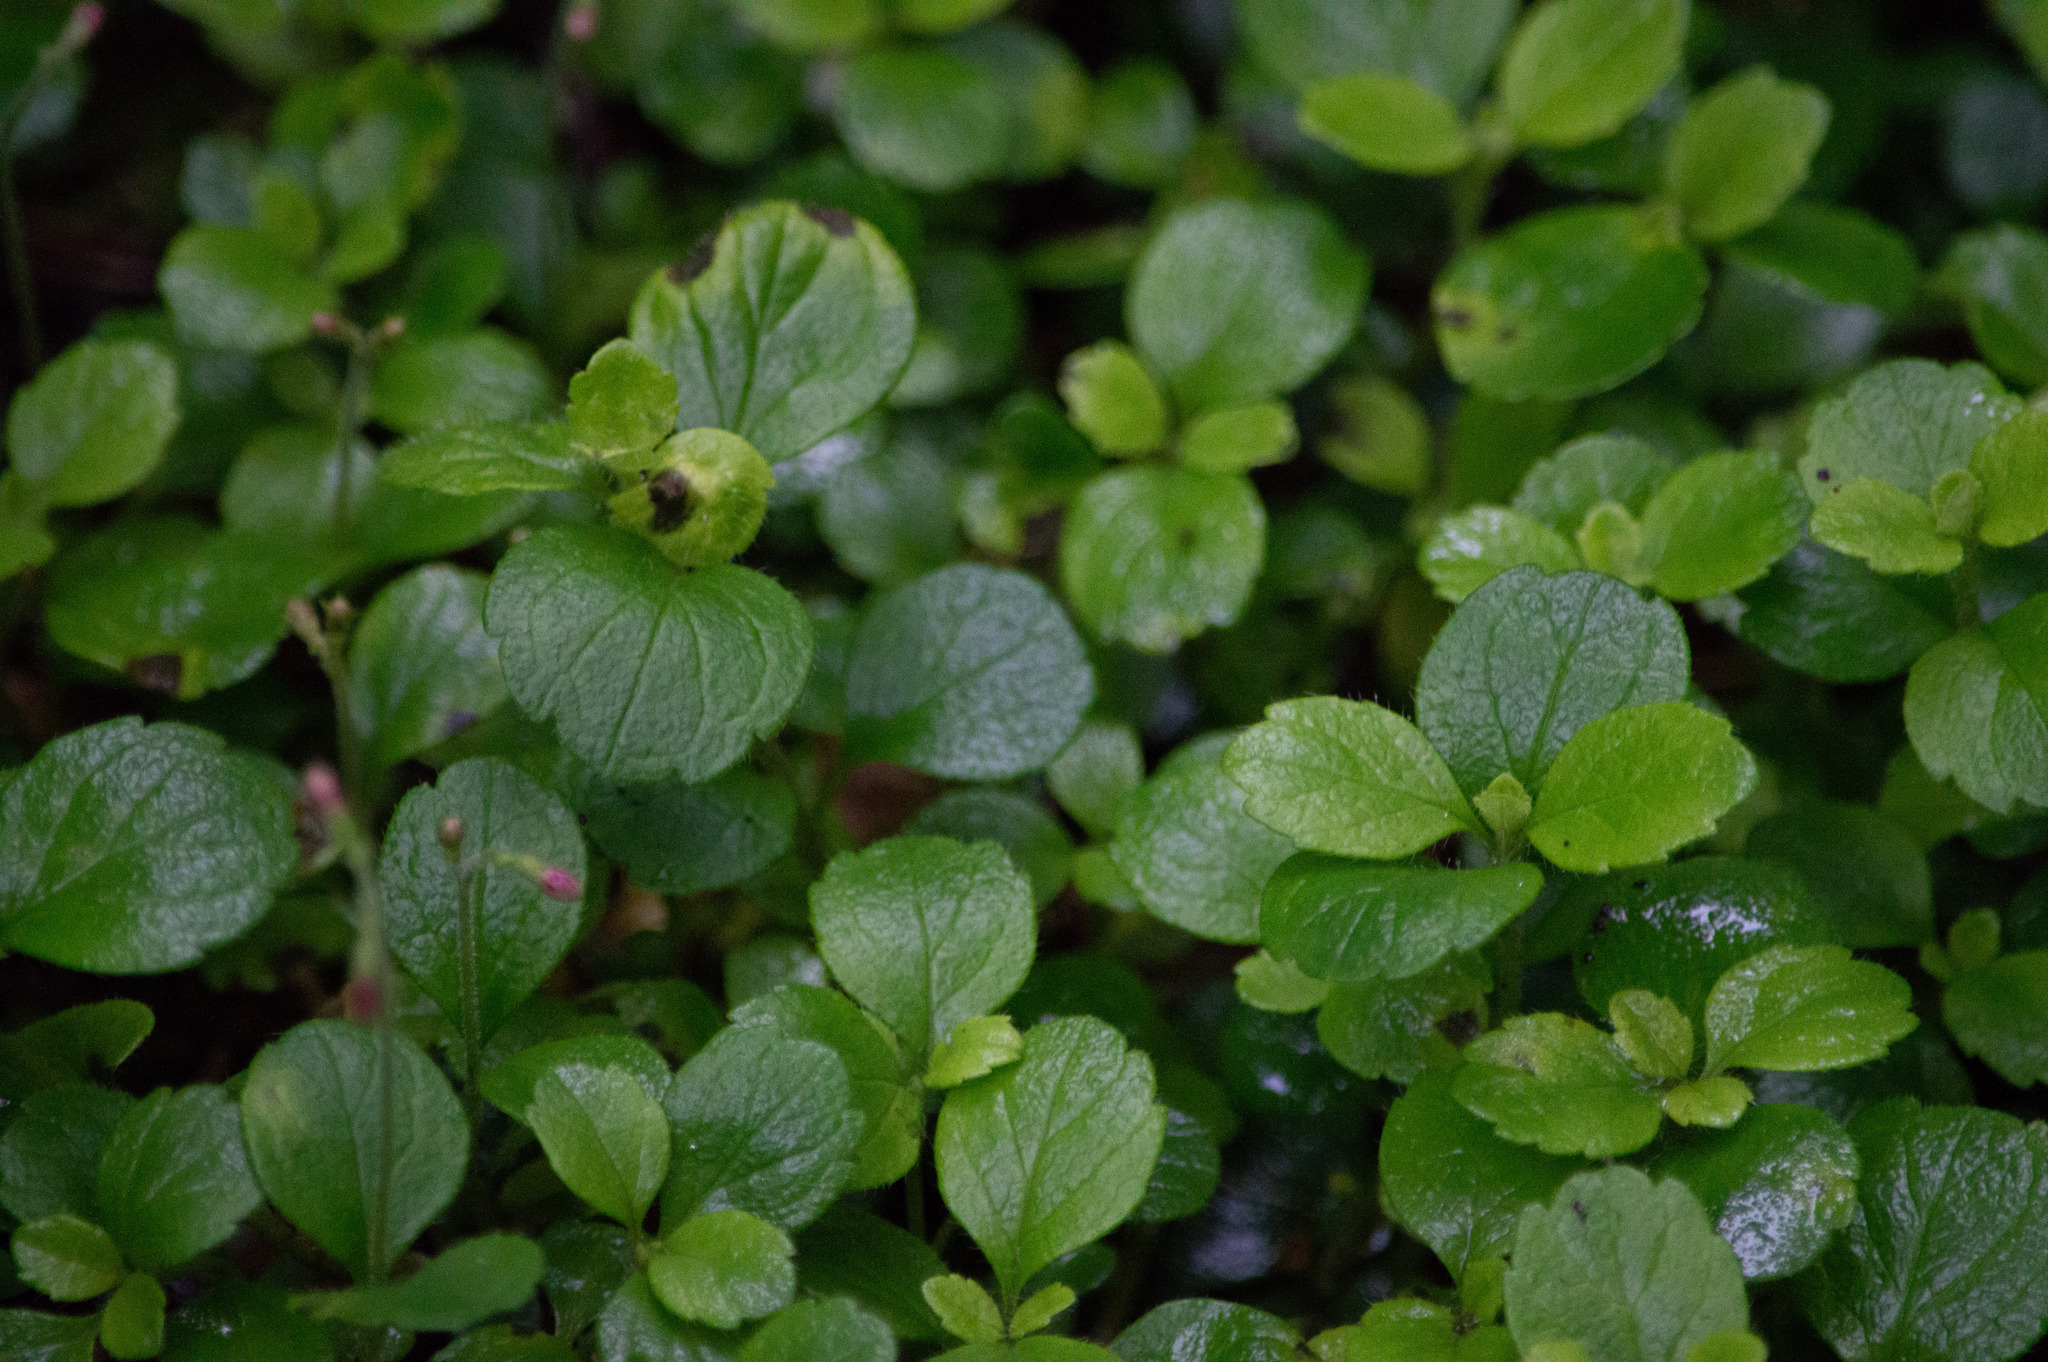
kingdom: Plantae
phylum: Tracheophyta
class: Magnoliopsida
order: Dipsacales
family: Caprifoliaceae
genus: Linnaea
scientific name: Linnaea borealis
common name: Twinflower
